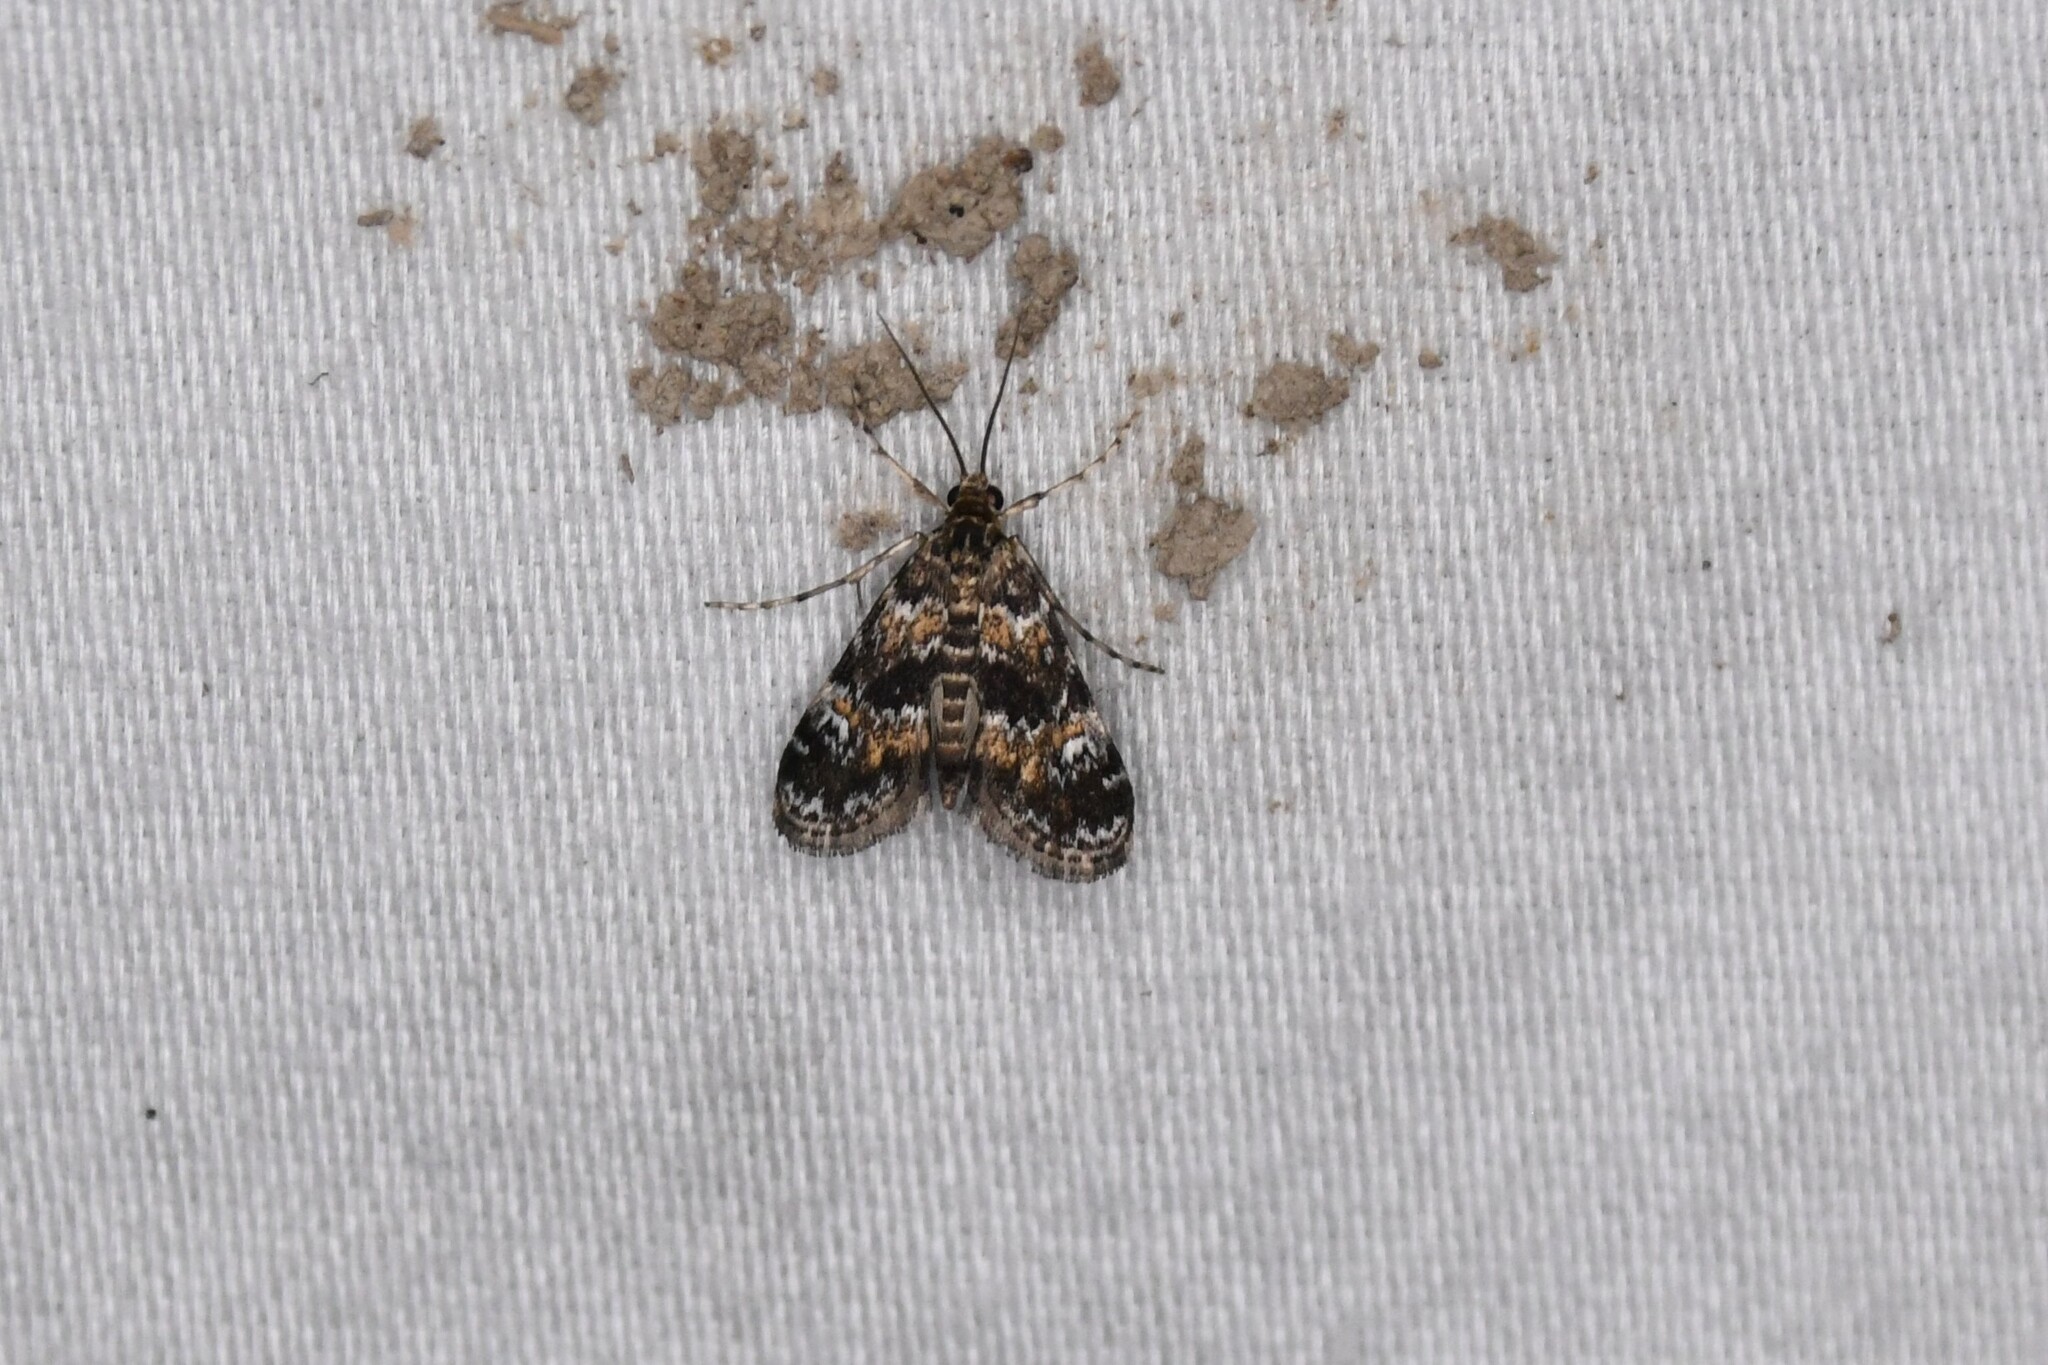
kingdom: Animalia
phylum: Arthropoda
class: Insecta
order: Lepidoptera
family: Crambidae
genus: Elophila
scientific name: Elophila obliteralis
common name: Waterlily leafcutter moth
